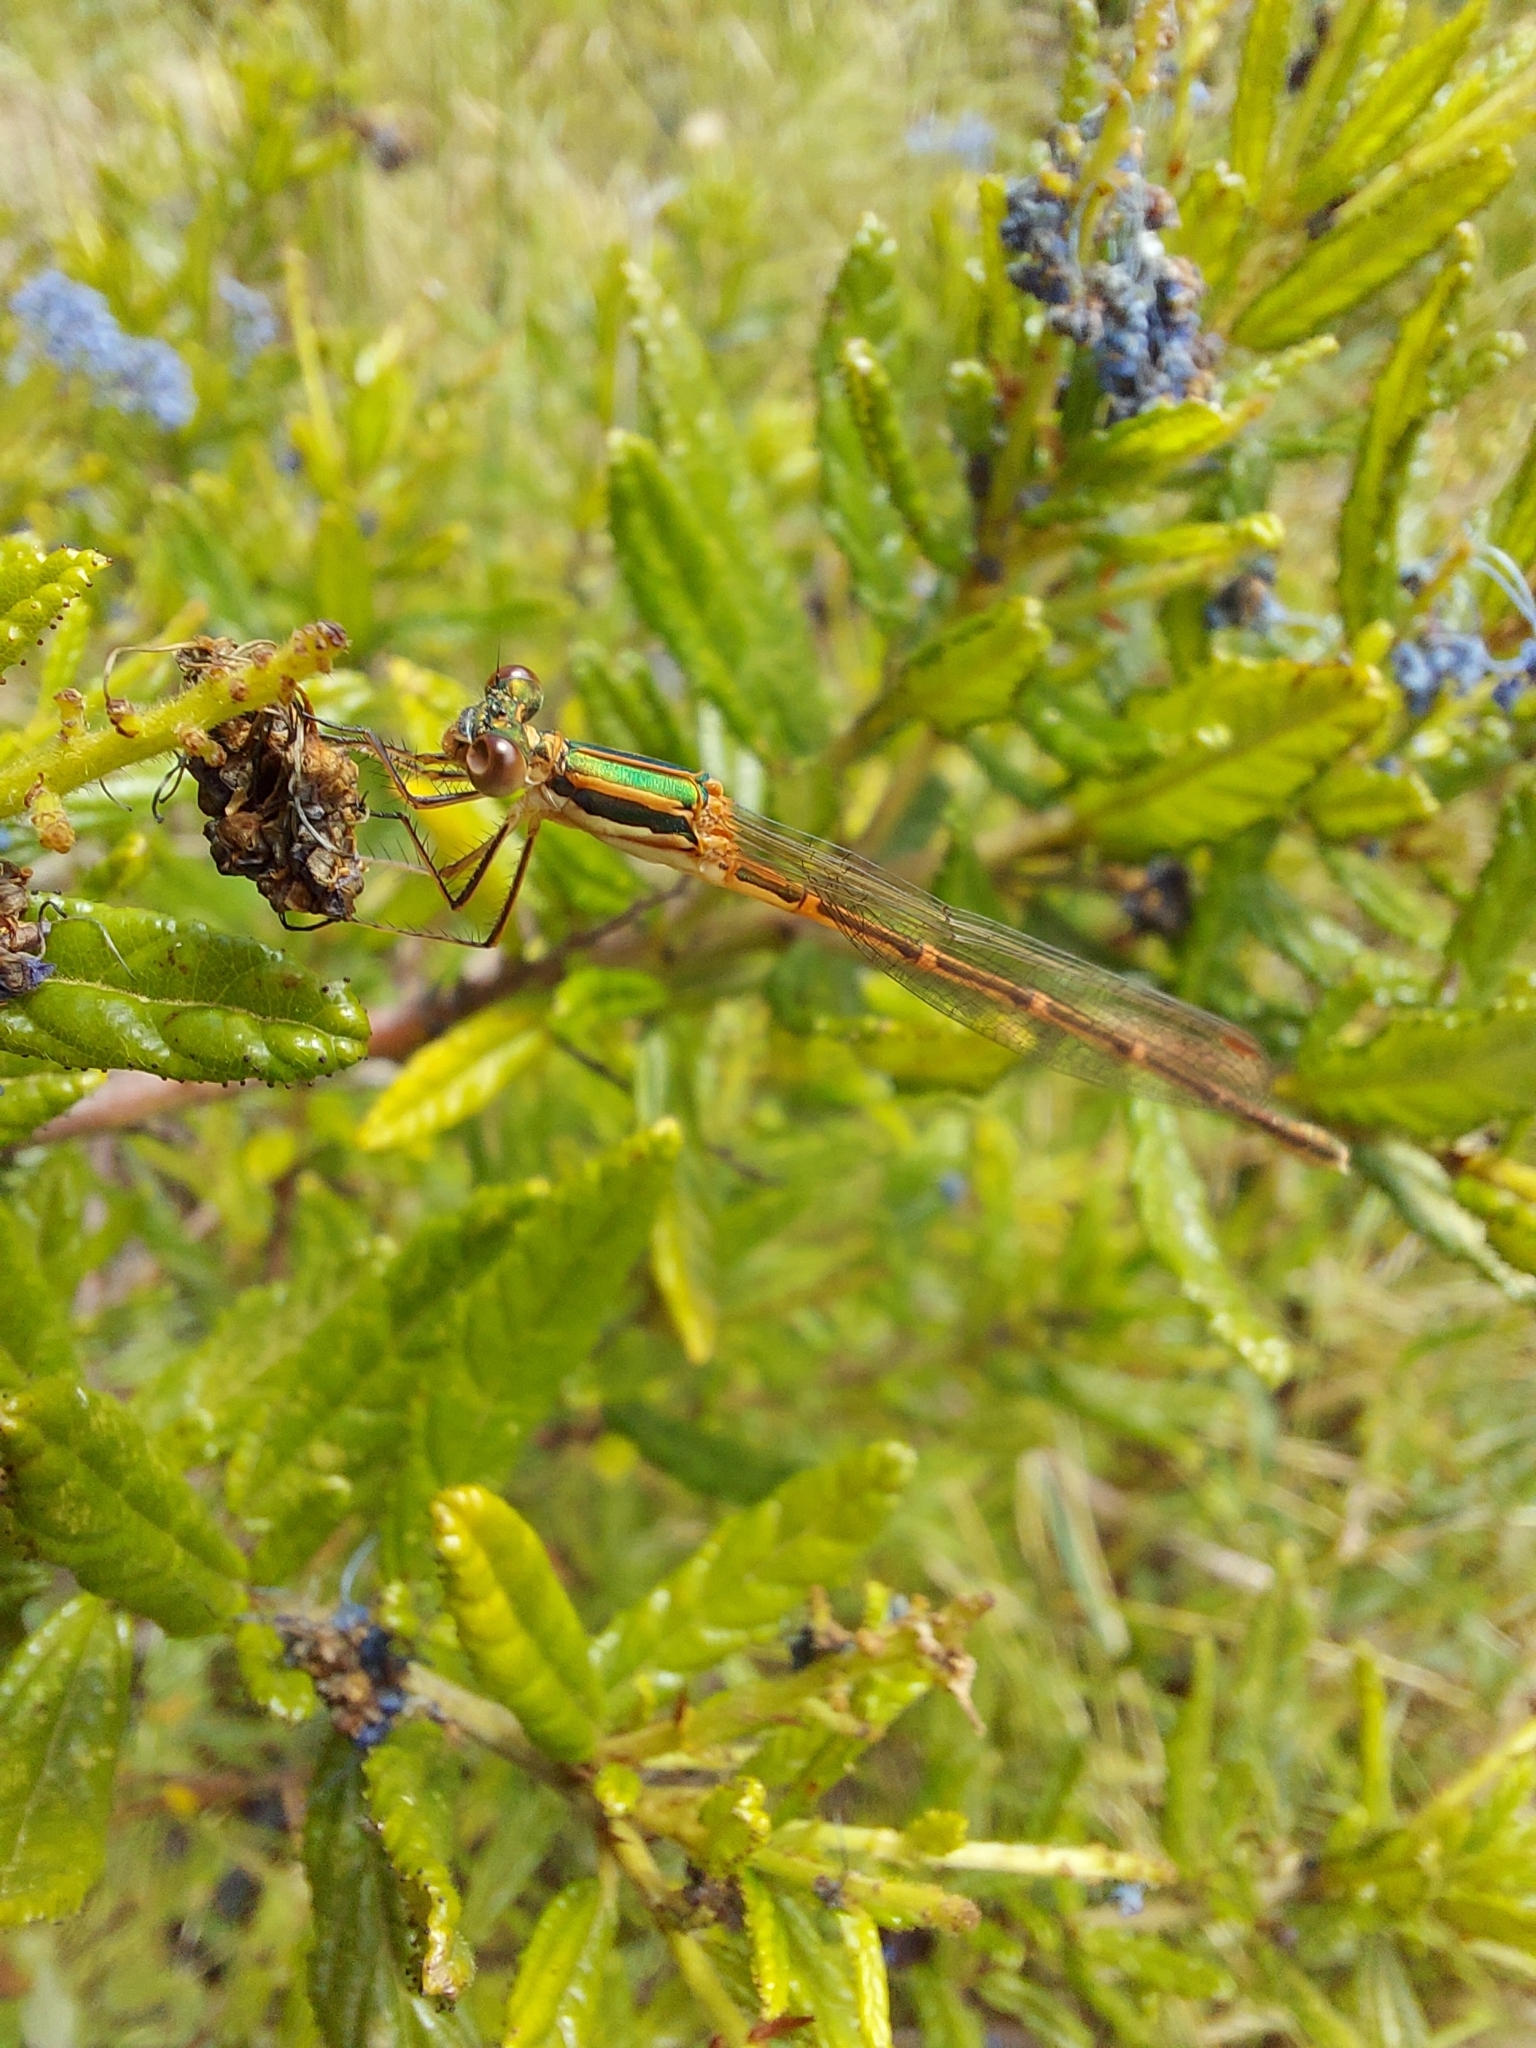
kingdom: Animalia
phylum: Arthropoda
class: Insecta
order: Odonata
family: Lestidae
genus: Austrolestes
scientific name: Austrolestes analis
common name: Slender ringtail
